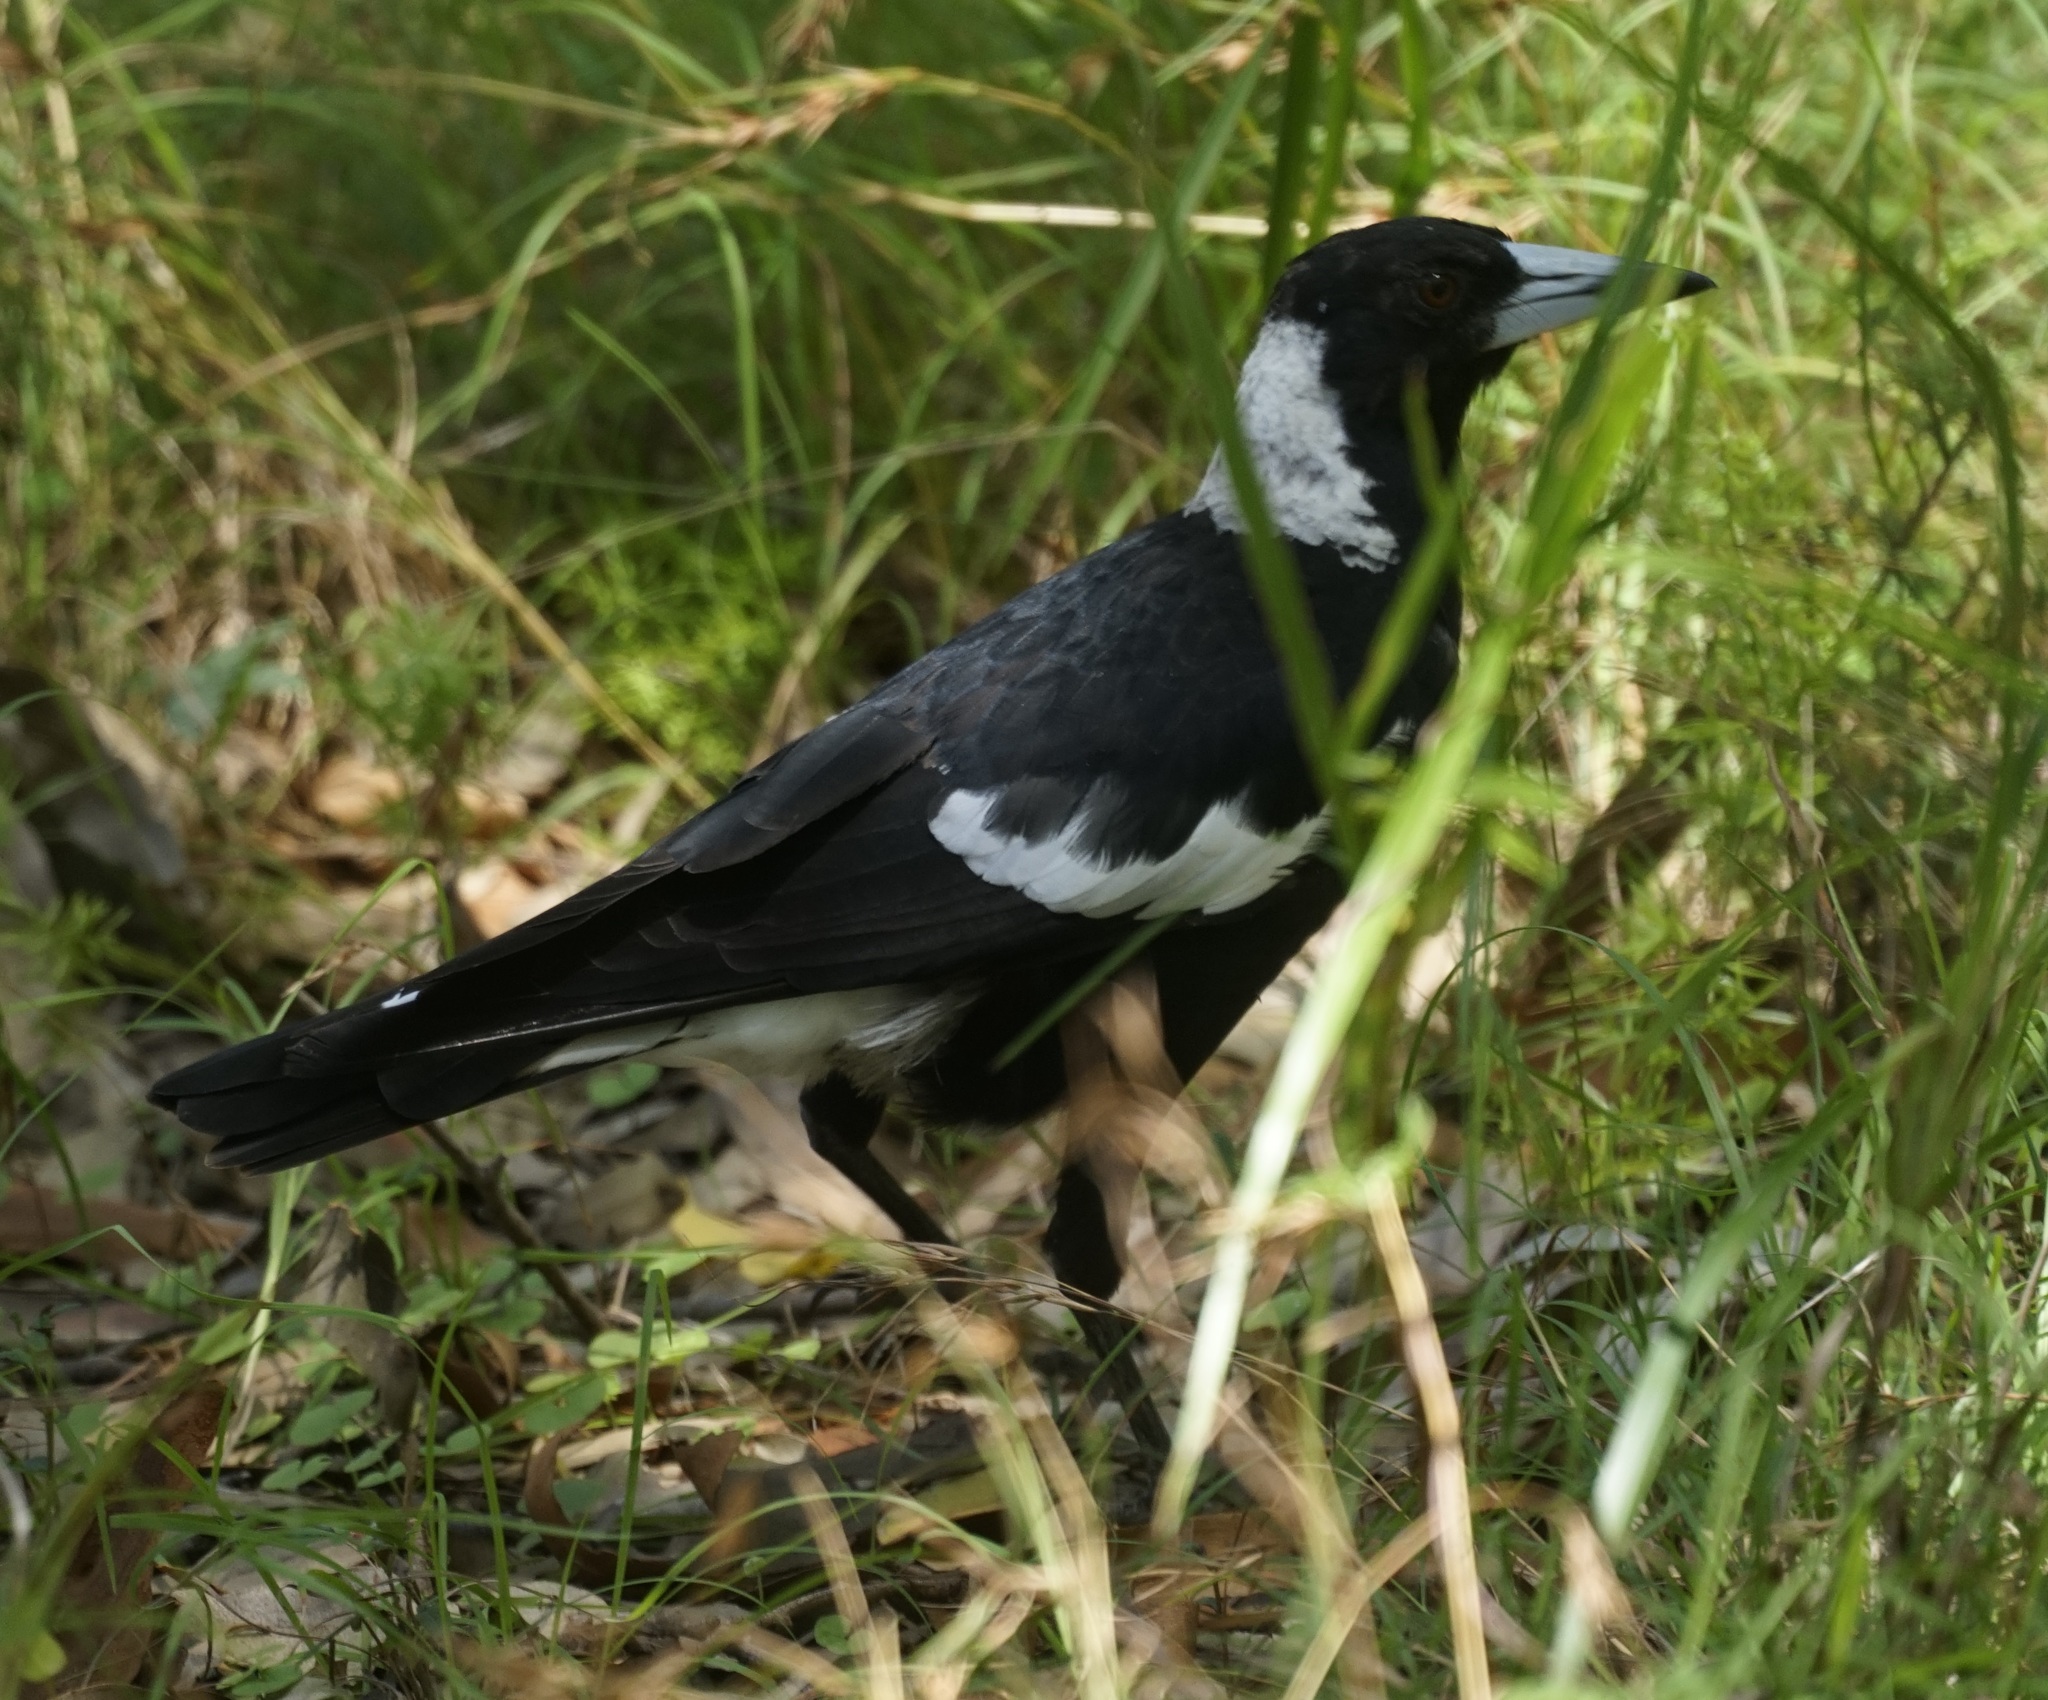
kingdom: Animalia
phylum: Chordata
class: Aves
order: Passeriformes
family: Cracticidae
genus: Gymnorhina
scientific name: Gymnorhina tibicen
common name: Australian magpie
